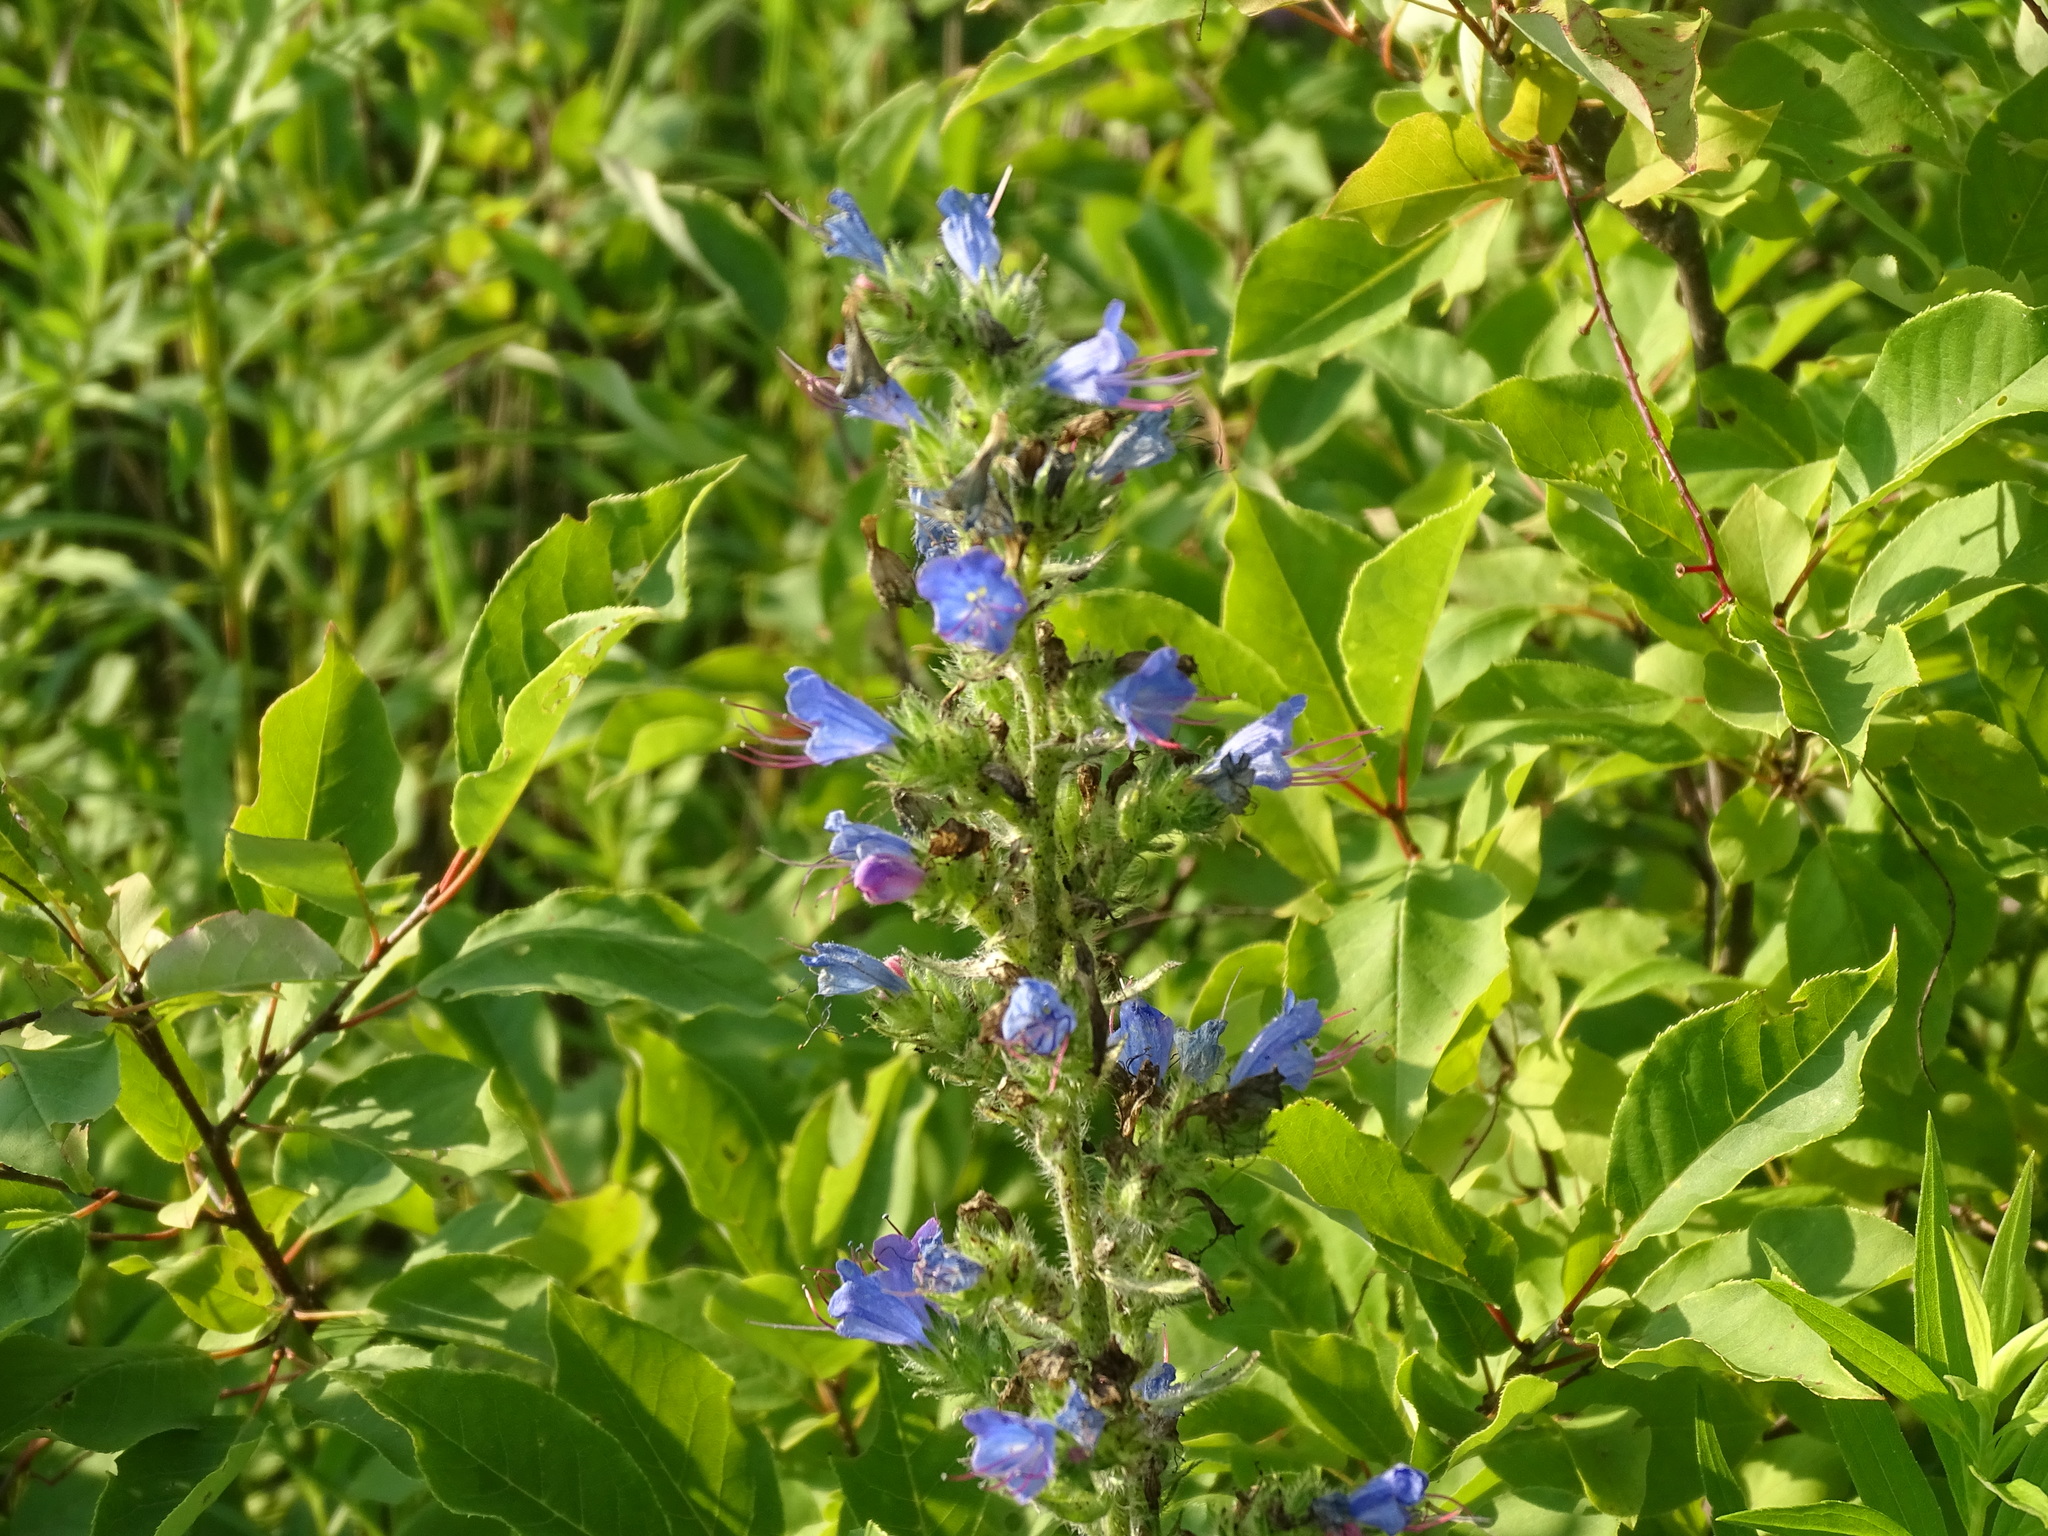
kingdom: Plantae
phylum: Tracheophyta
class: Magnoliopsida
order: Boraginales
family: Boraginaceae
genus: Echium
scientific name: Echium vulgare
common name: Common viper's bugloss
